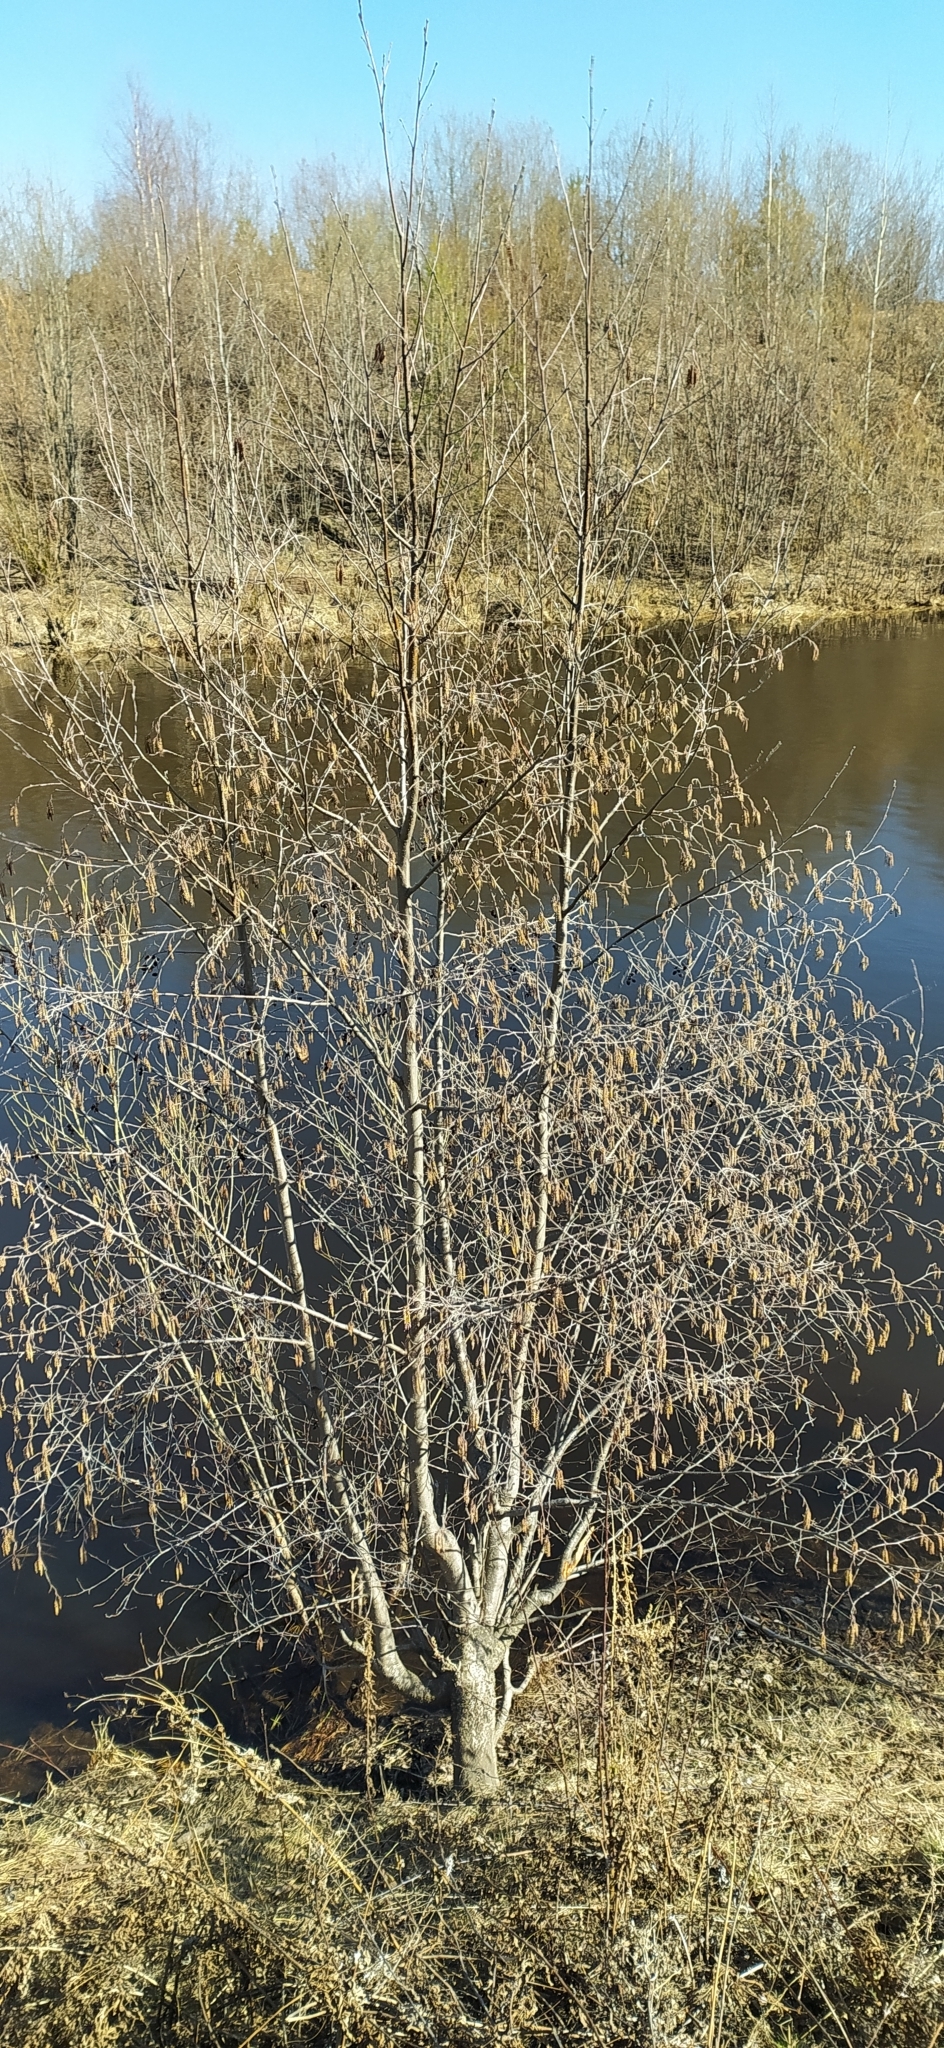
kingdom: Plantae
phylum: Tracheophyta
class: Magnoliopsida
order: Fagales
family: Betulaceae
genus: Alnus
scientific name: Alnus incana
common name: Grey alder
